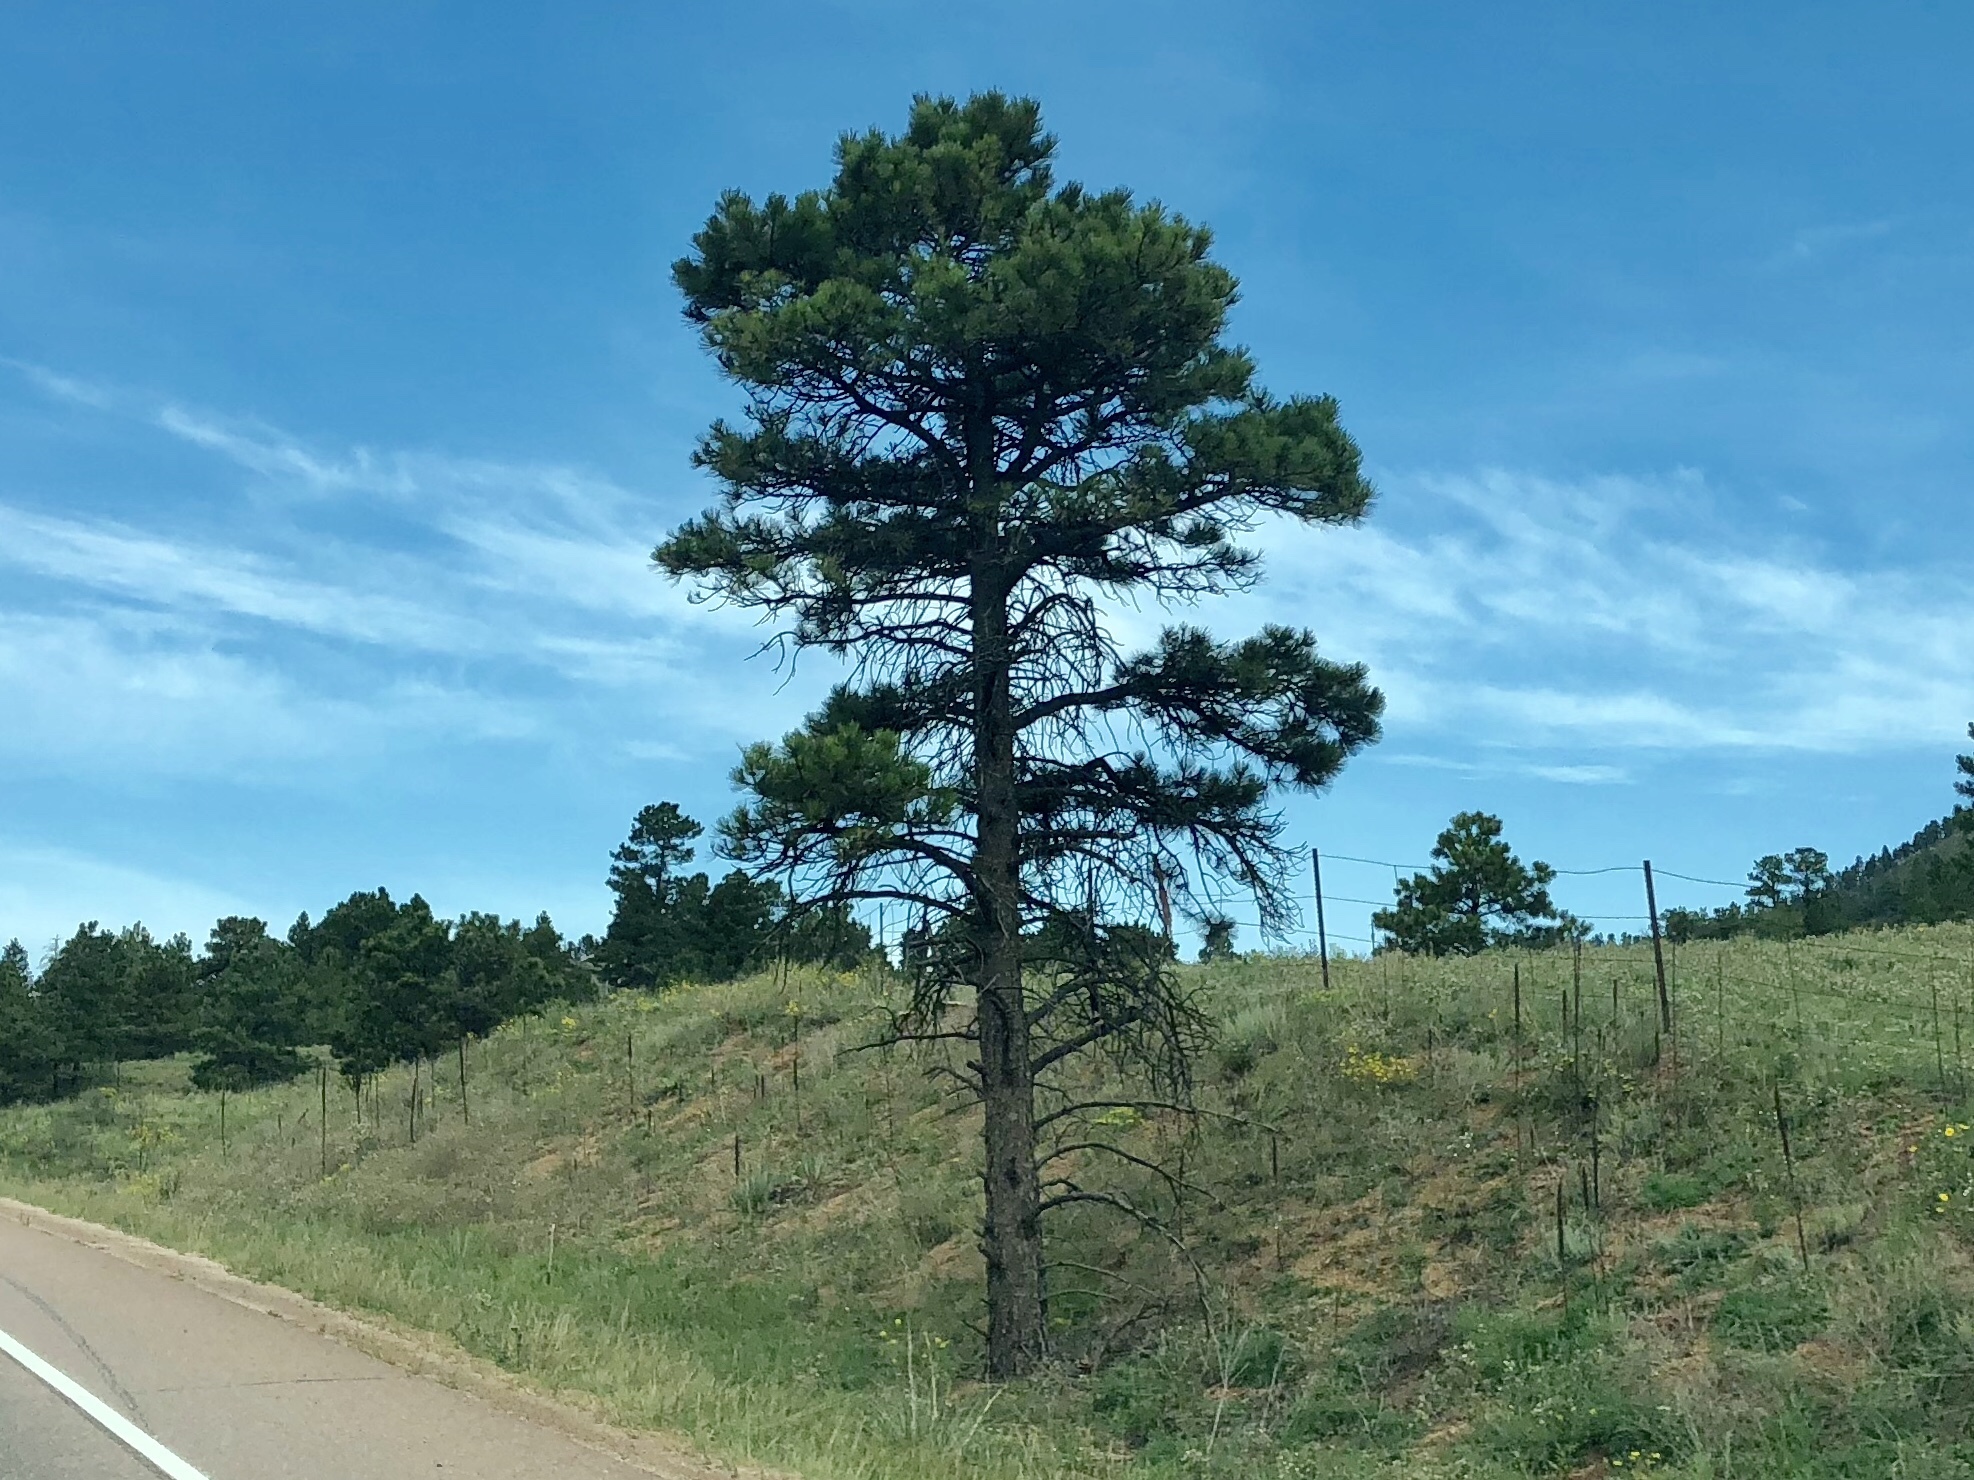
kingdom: Plantae
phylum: Tracheophyta
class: Pinopsida
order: Pinales
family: Pinaceae
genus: Pinus
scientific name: Pinus ponderosa
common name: Western yellow-pine
